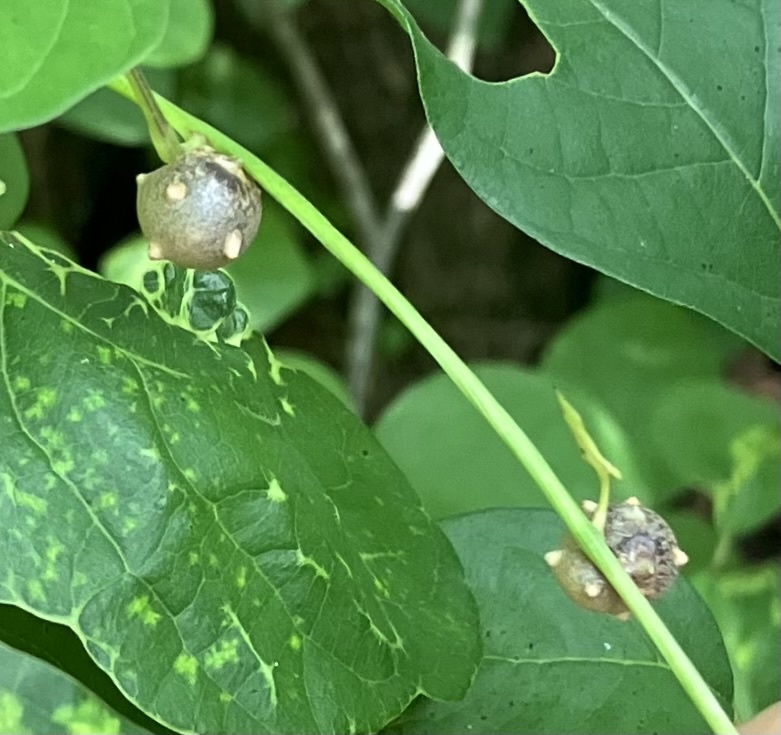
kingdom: Plantae
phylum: Tracheophyta
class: Liliopsida
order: Dioscoreales
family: Dioscoreaceae
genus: Dioscorea
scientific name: Dioscorea polystachya
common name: Chinese yam
